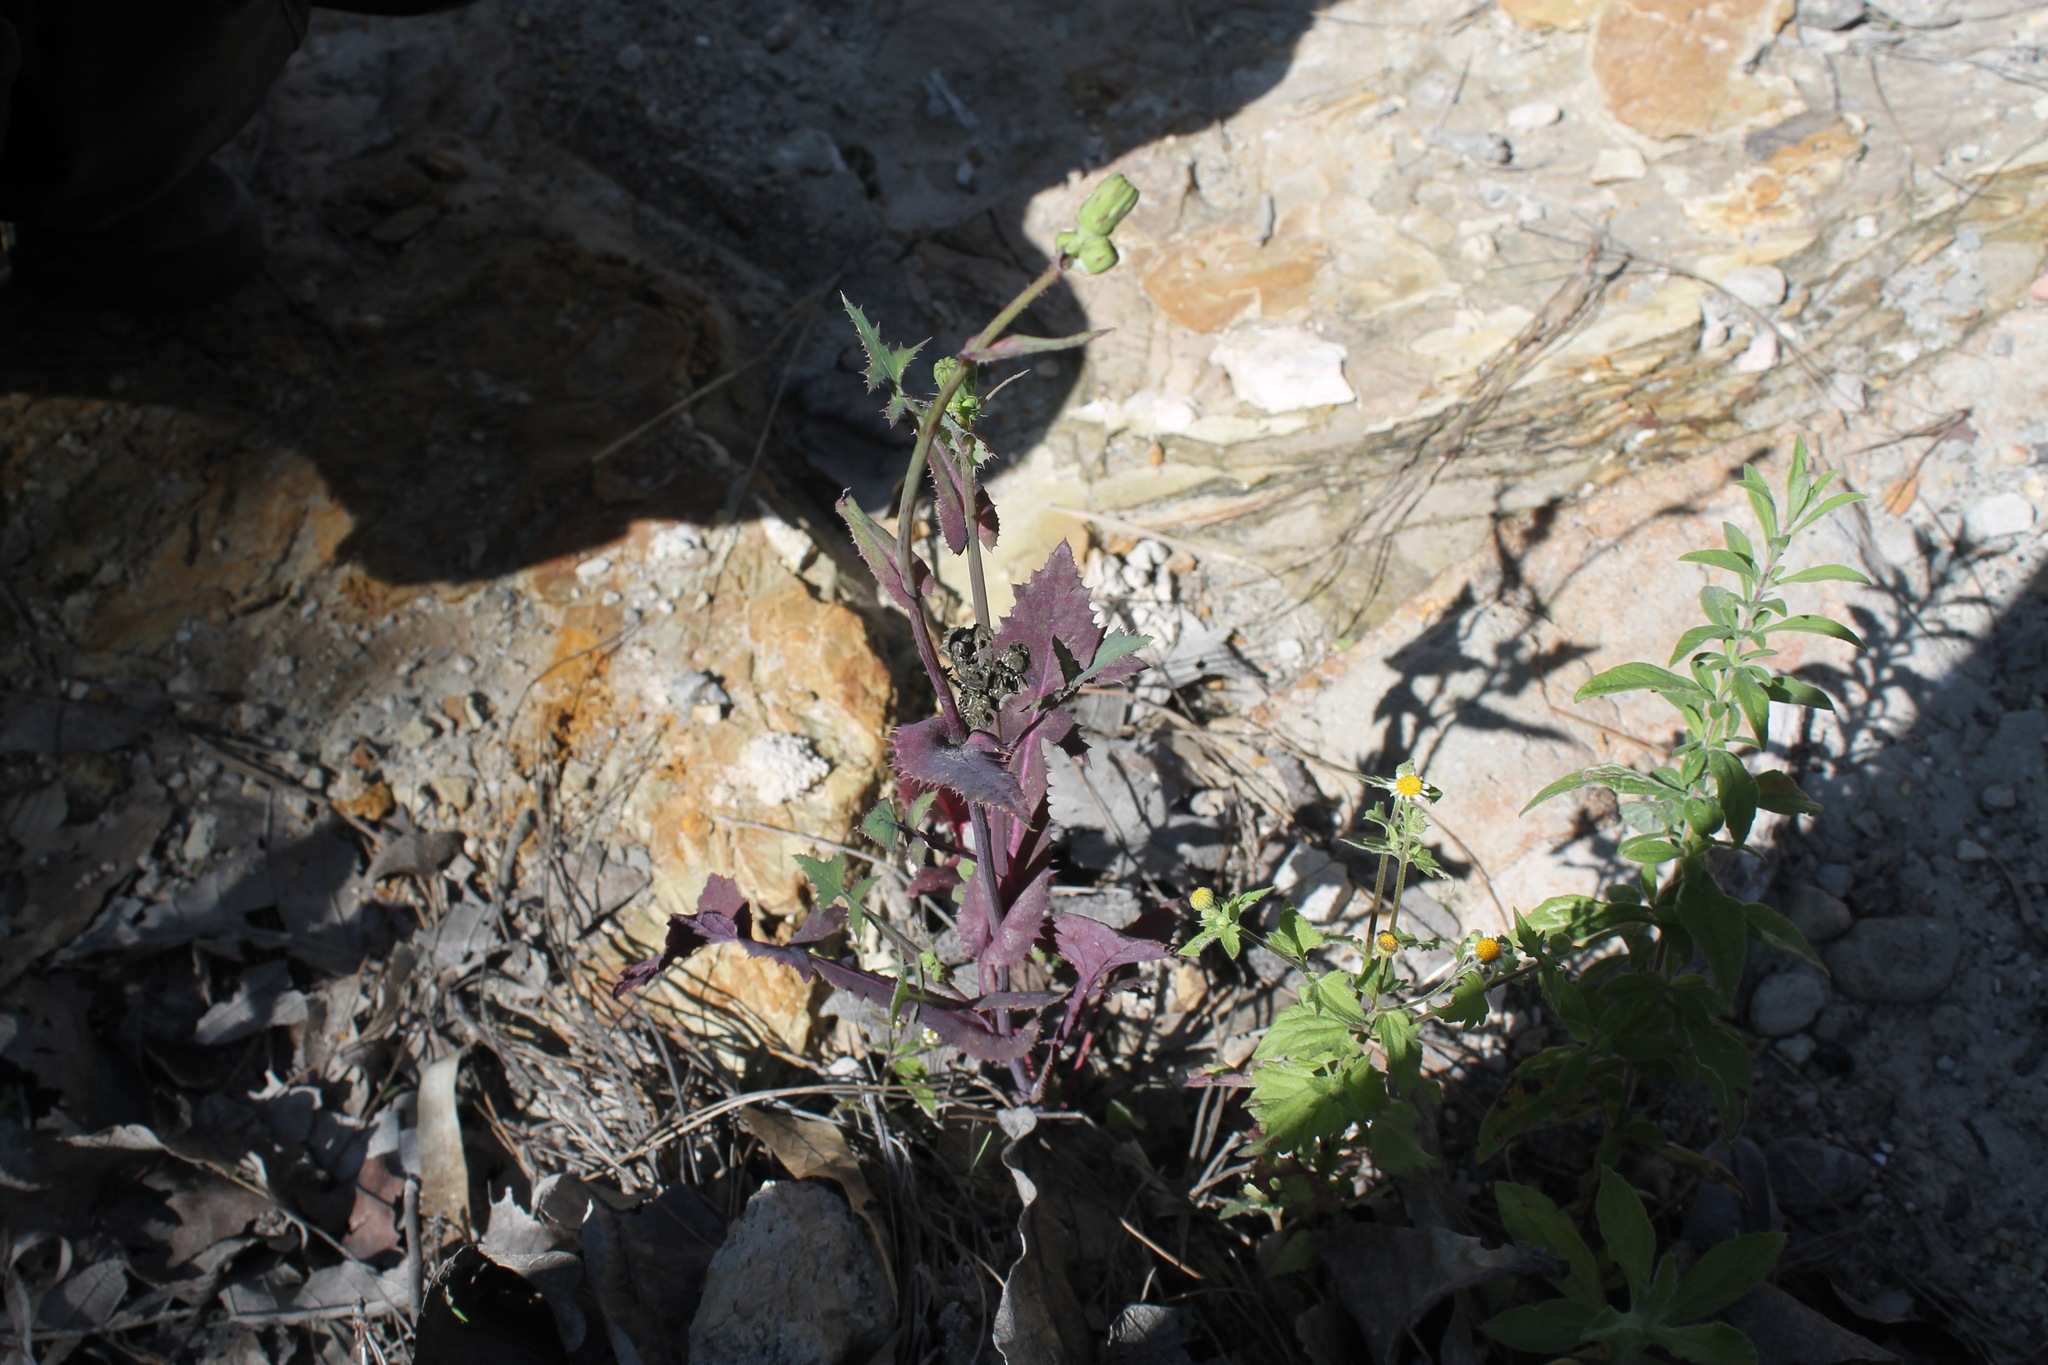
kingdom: Plantae
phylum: Tracheophyta
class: Magnoliopsida
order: Asterales
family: Asteraceae
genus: Sonchus
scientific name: Sonchus oleraceus
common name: Common sowthistle
